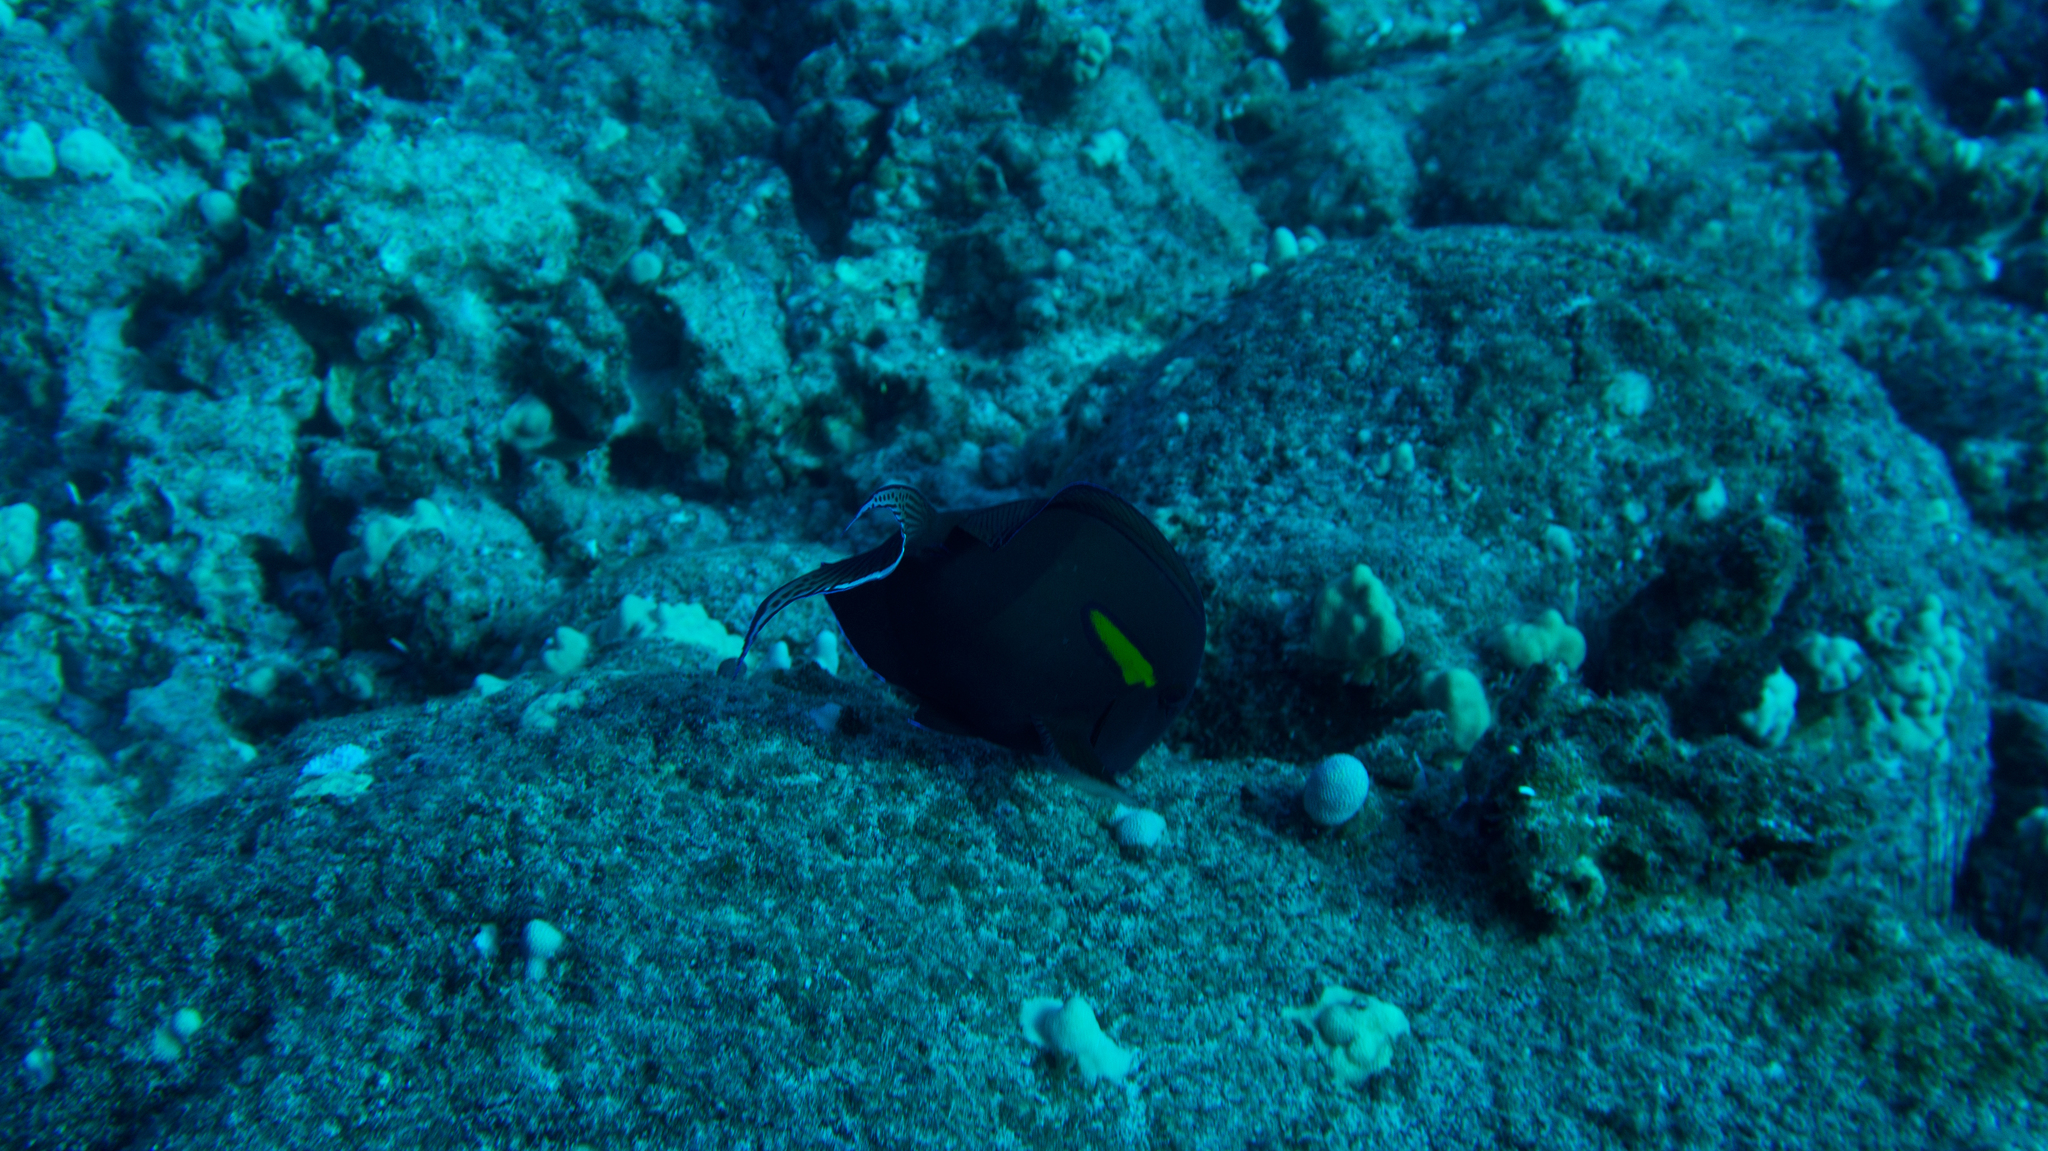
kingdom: Animalia
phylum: Chordata
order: Perciformes
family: Acanthuridae
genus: Acanthurus
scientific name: Acanthurus olivaceus
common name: Gendarme fish
